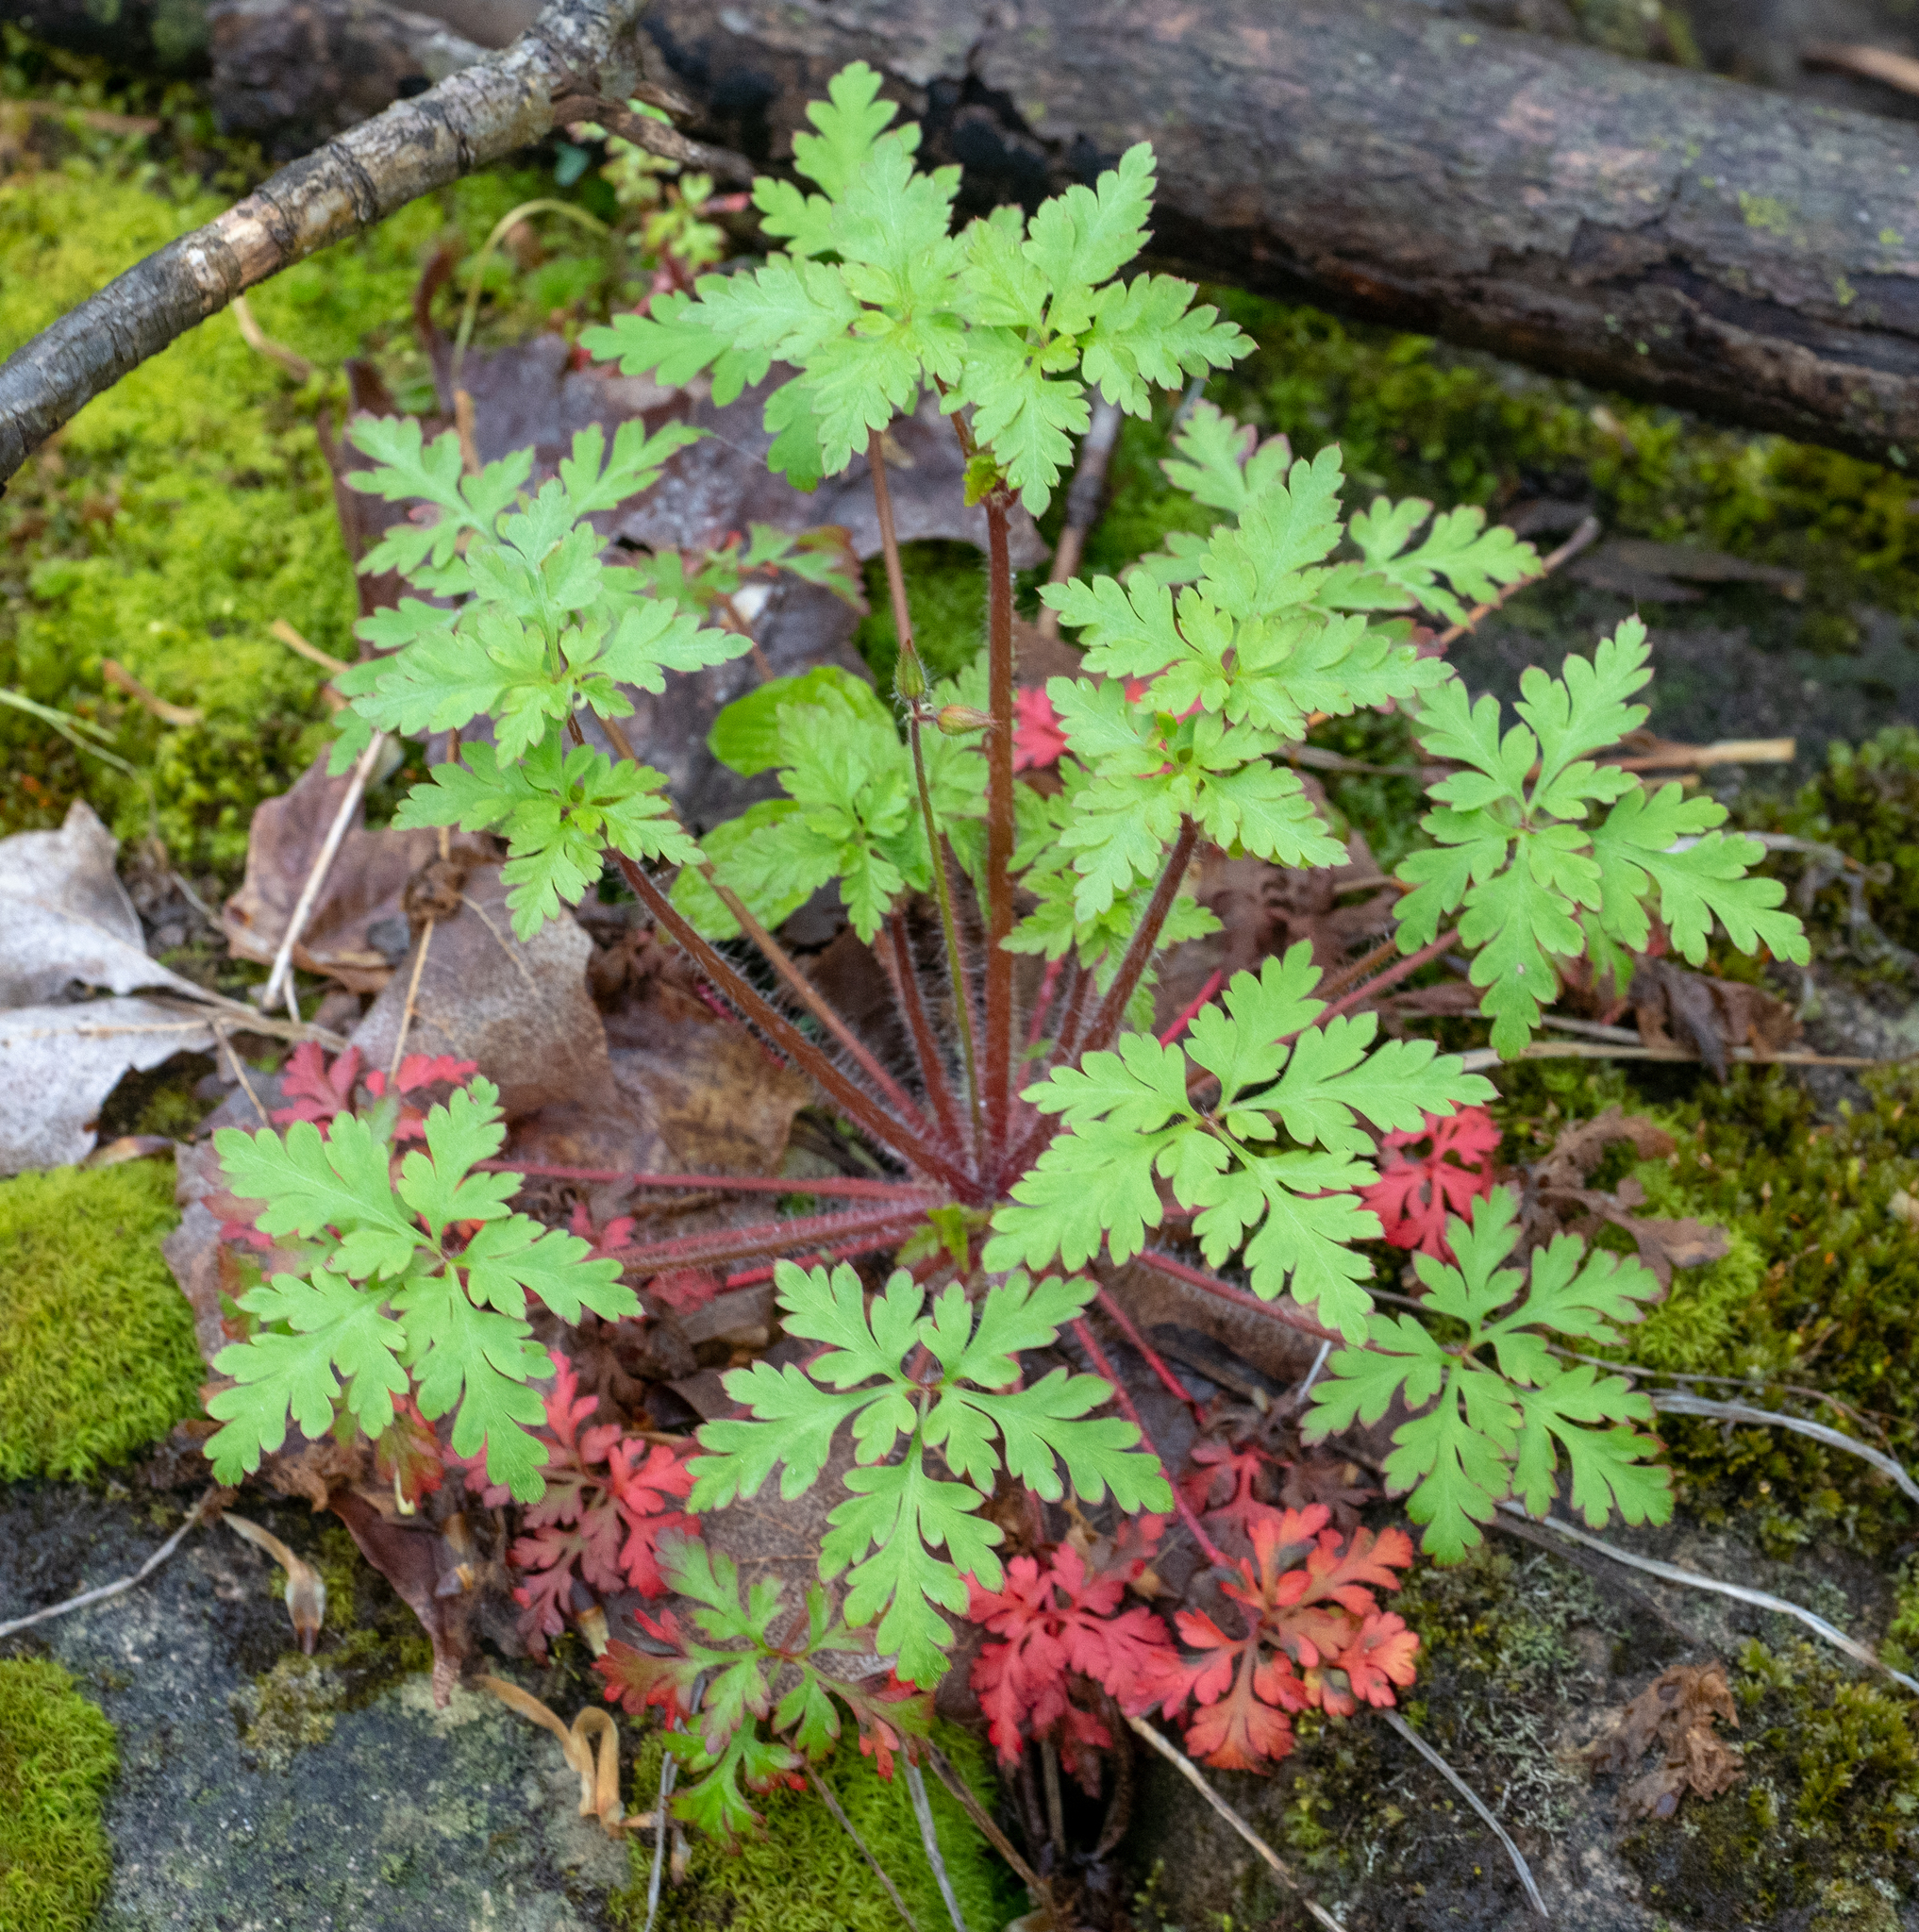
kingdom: Plantae
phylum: Tracheophyta
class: Magnoliopsida
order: Geraniales
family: Geraniaceae
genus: Geranium
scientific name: Geranium robertianum
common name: Herb-robert
